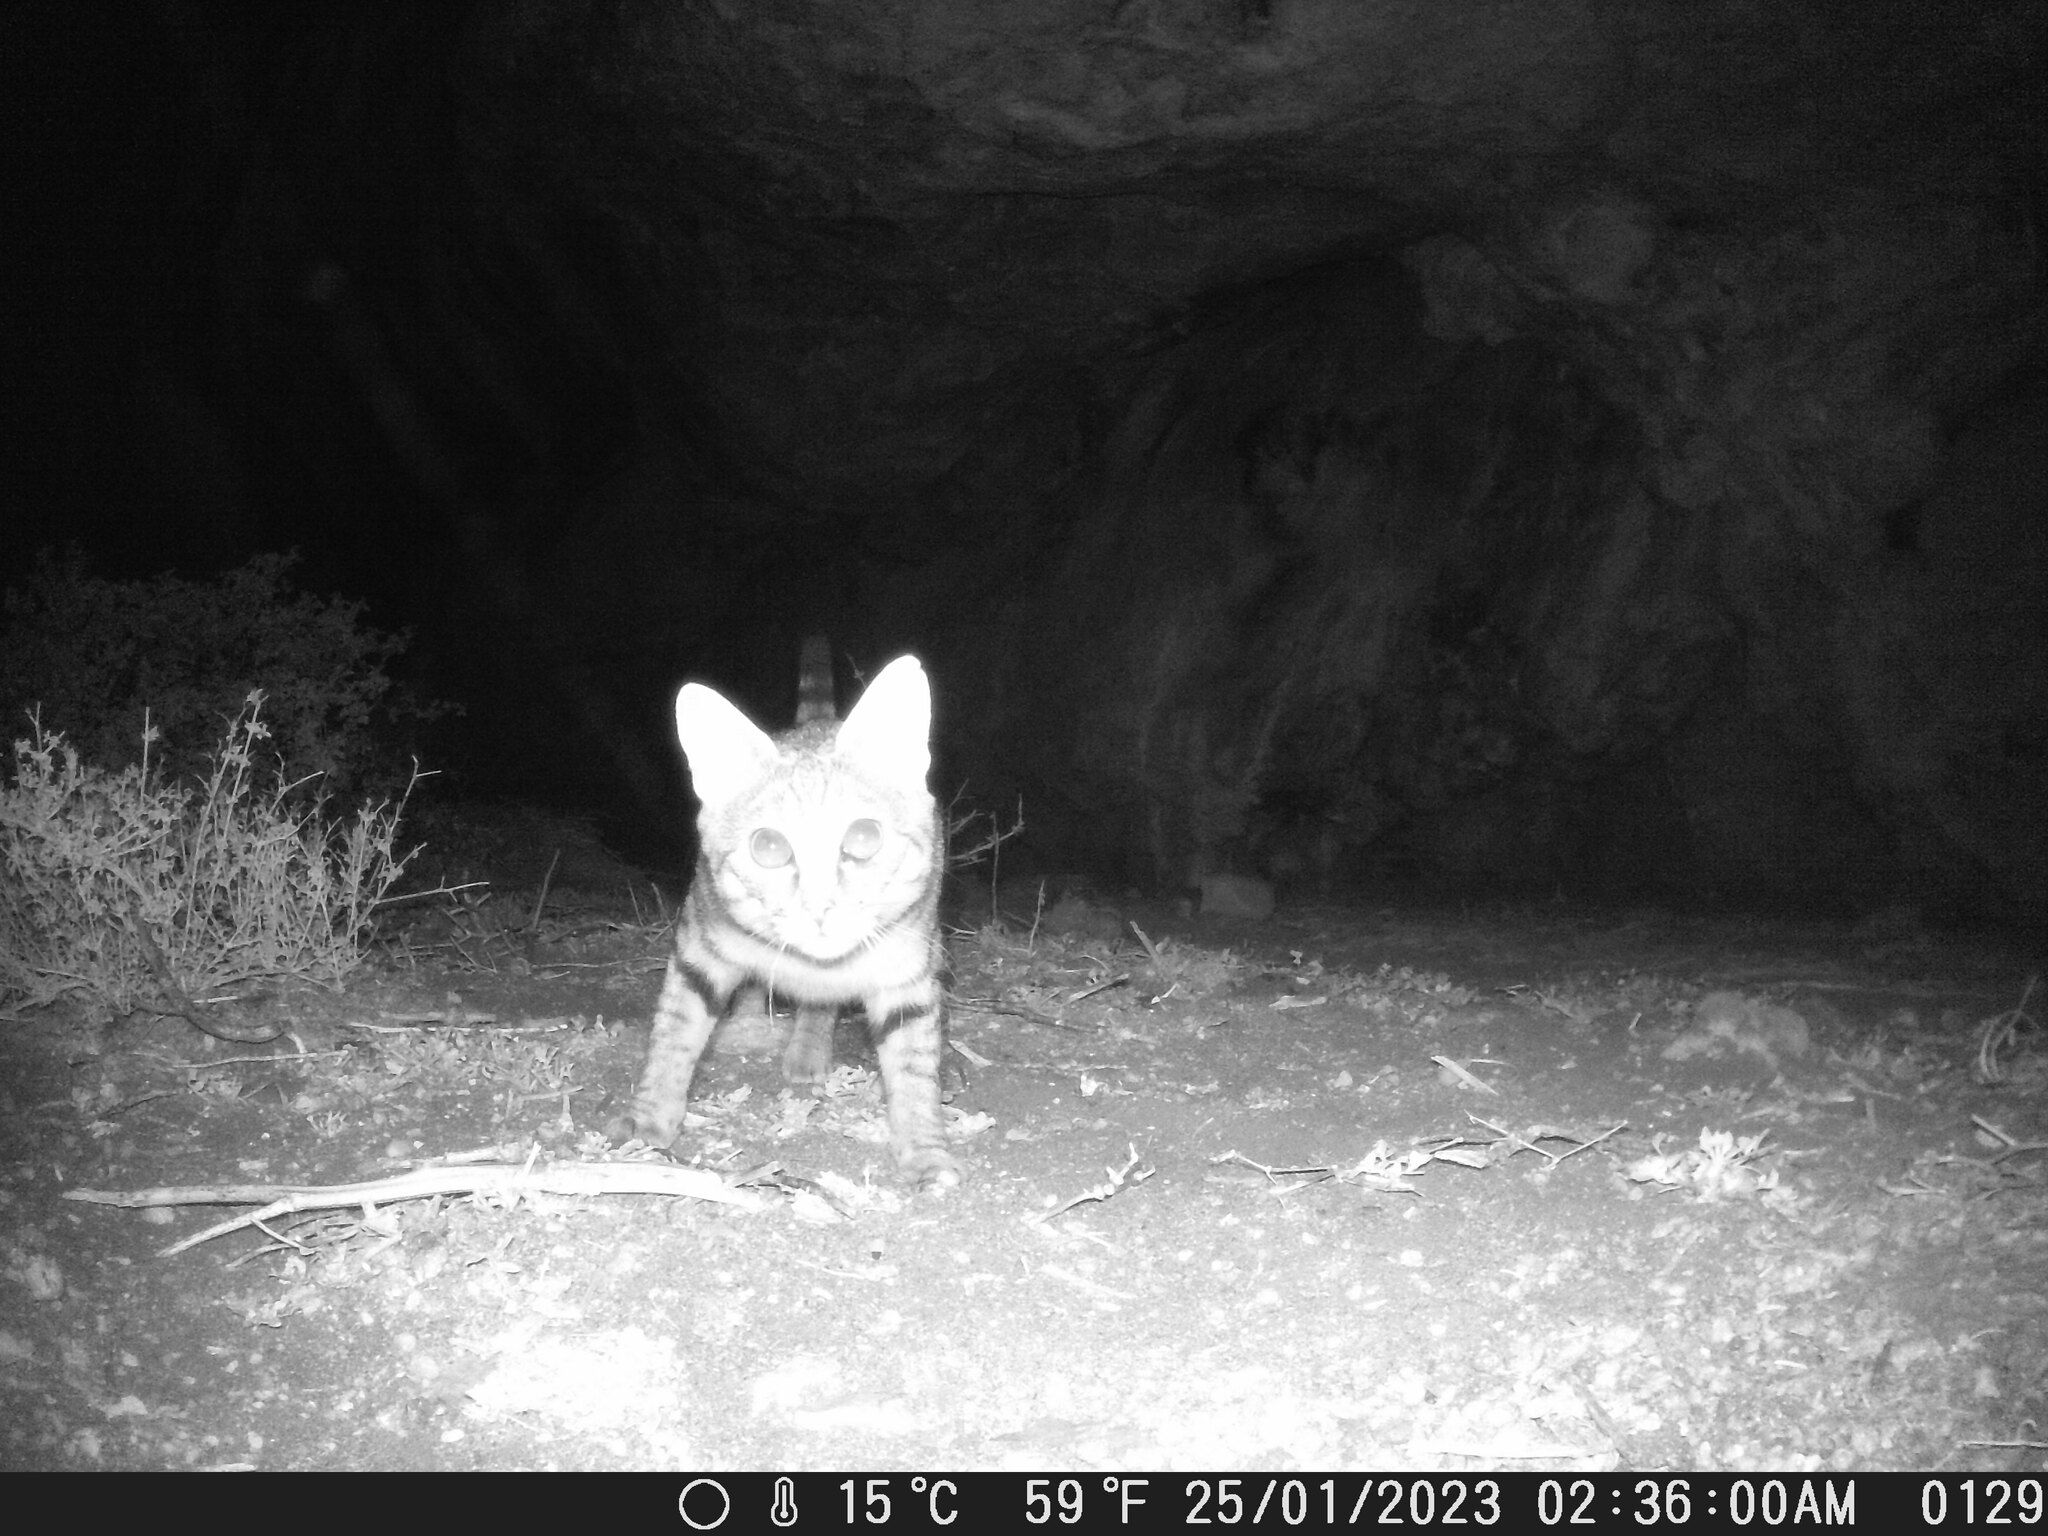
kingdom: Animalia
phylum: Chordata
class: Mammalia
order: Carnivora
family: Felidae
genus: Felis
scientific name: Felis silvestris
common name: Wildcat
